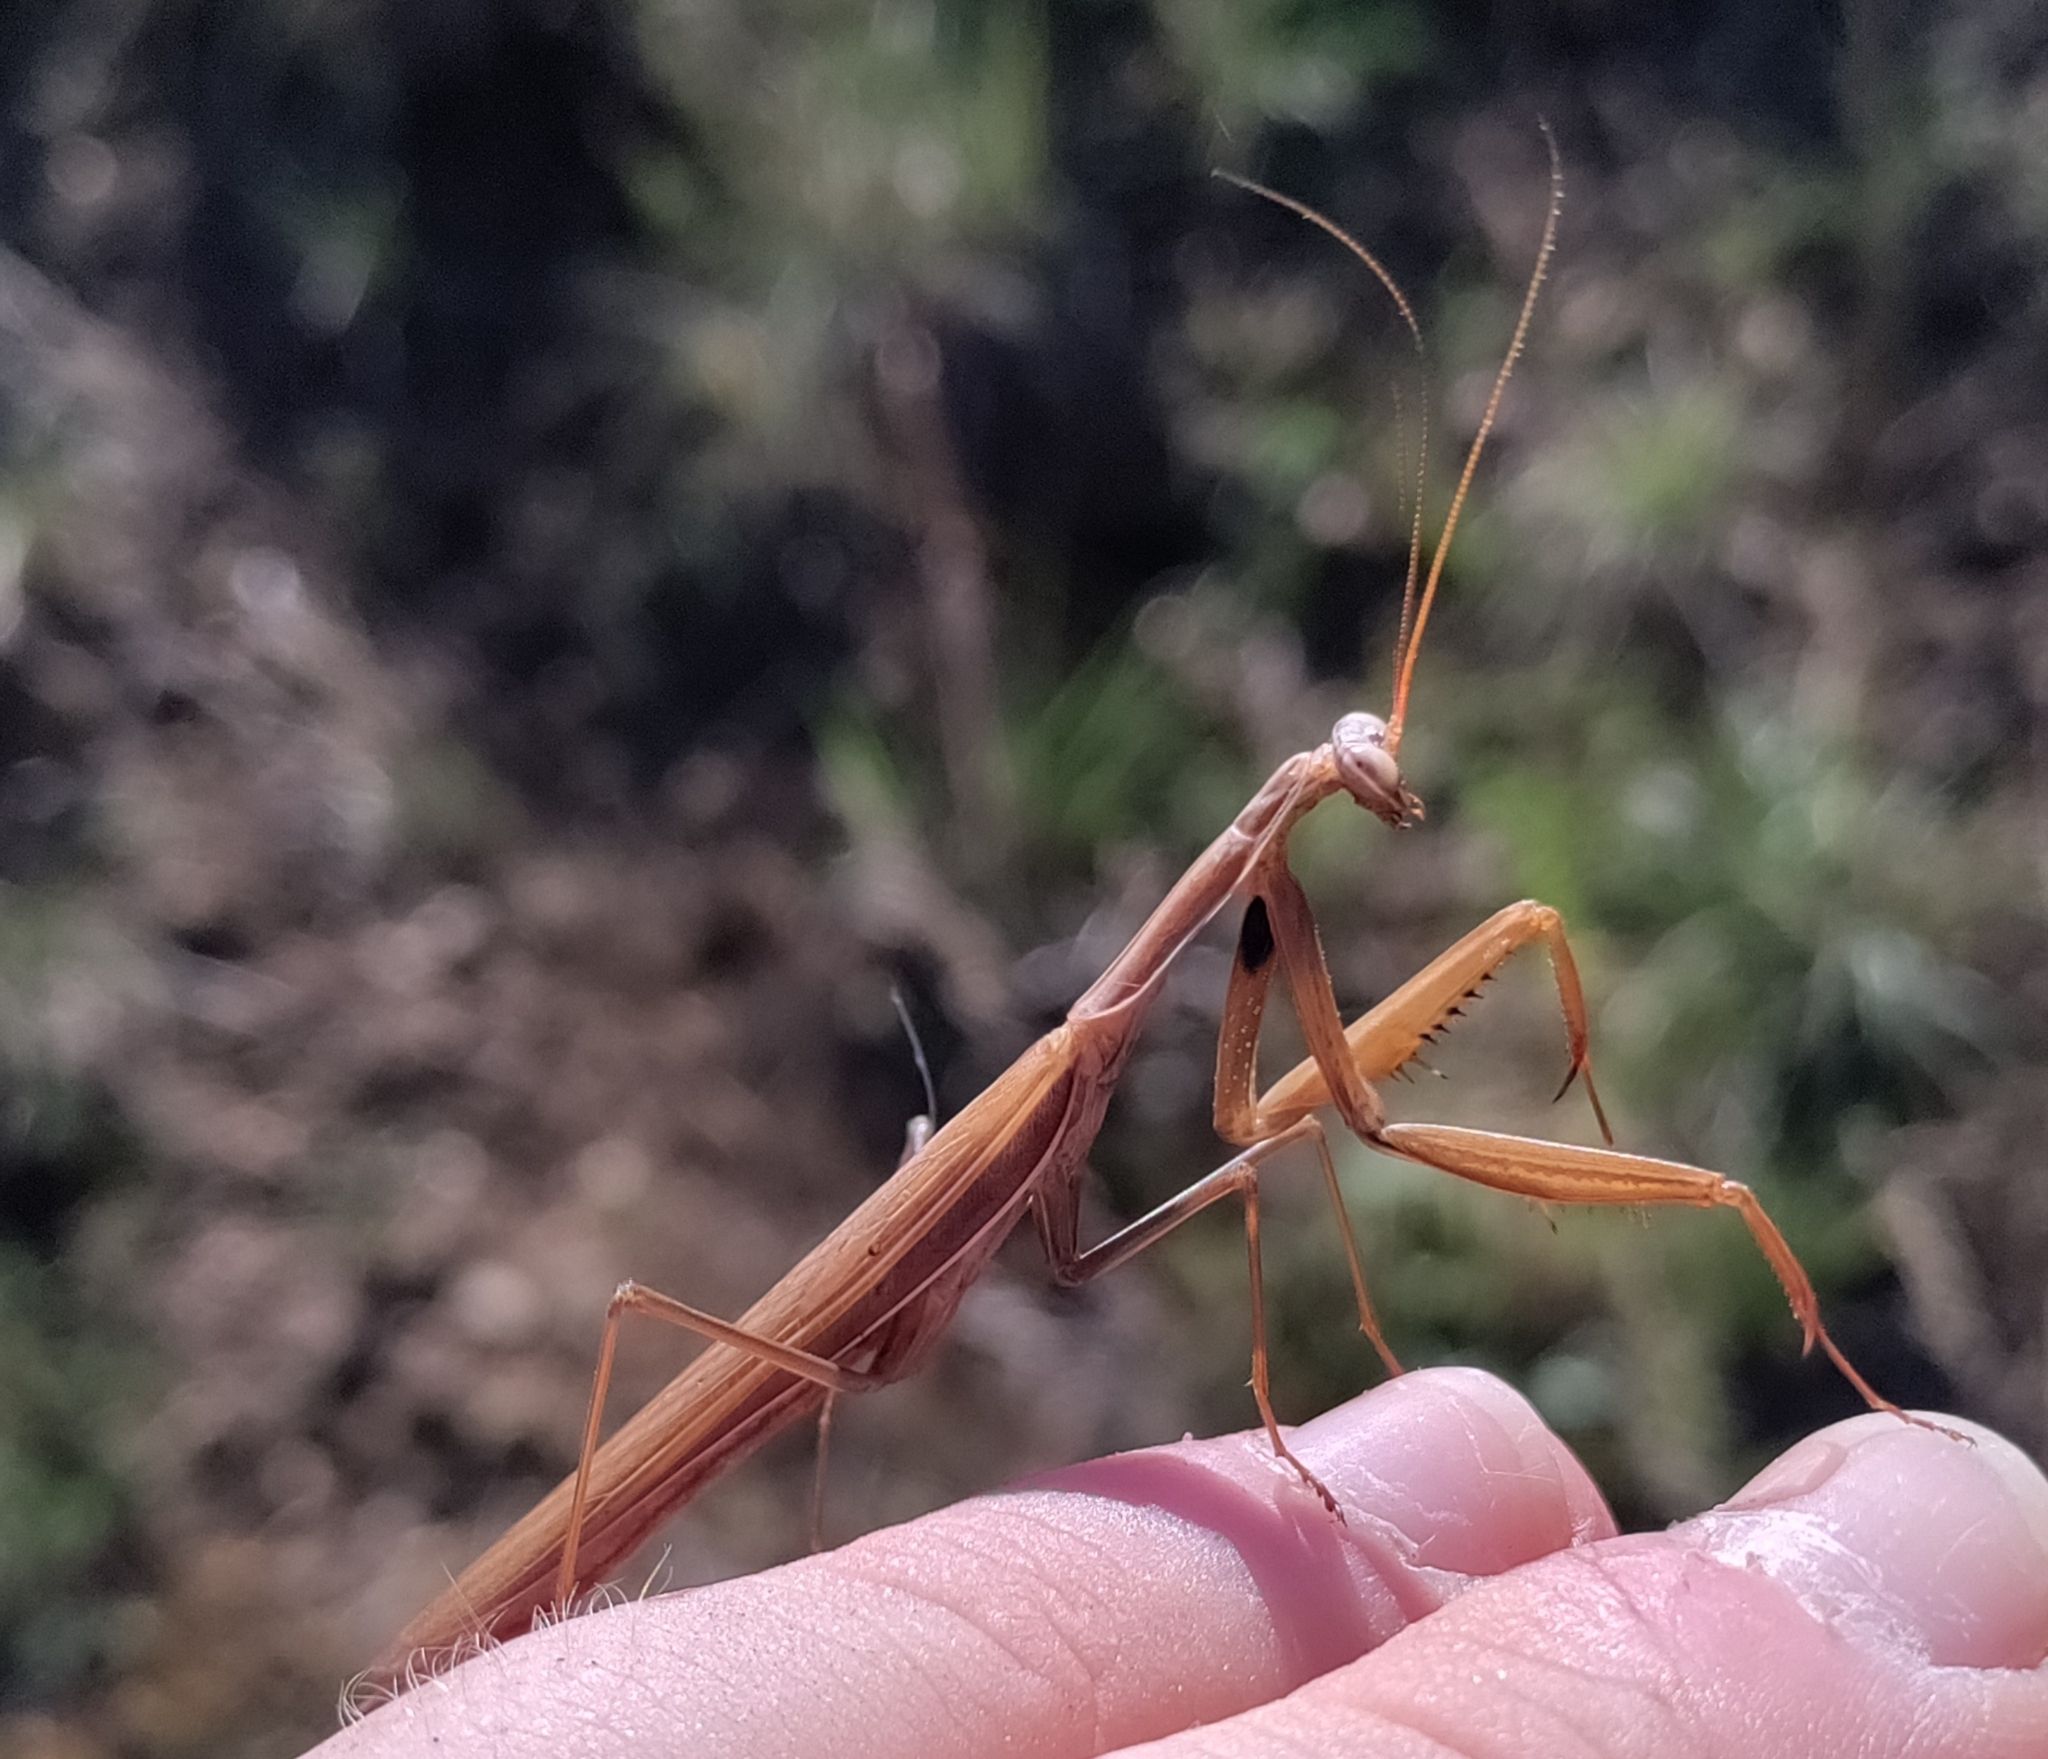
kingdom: Animalia
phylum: Arthropoda
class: Insecta
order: Mantodea
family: Mantidae
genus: Mantis
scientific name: Mantis religiosa
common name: Praying mantis
